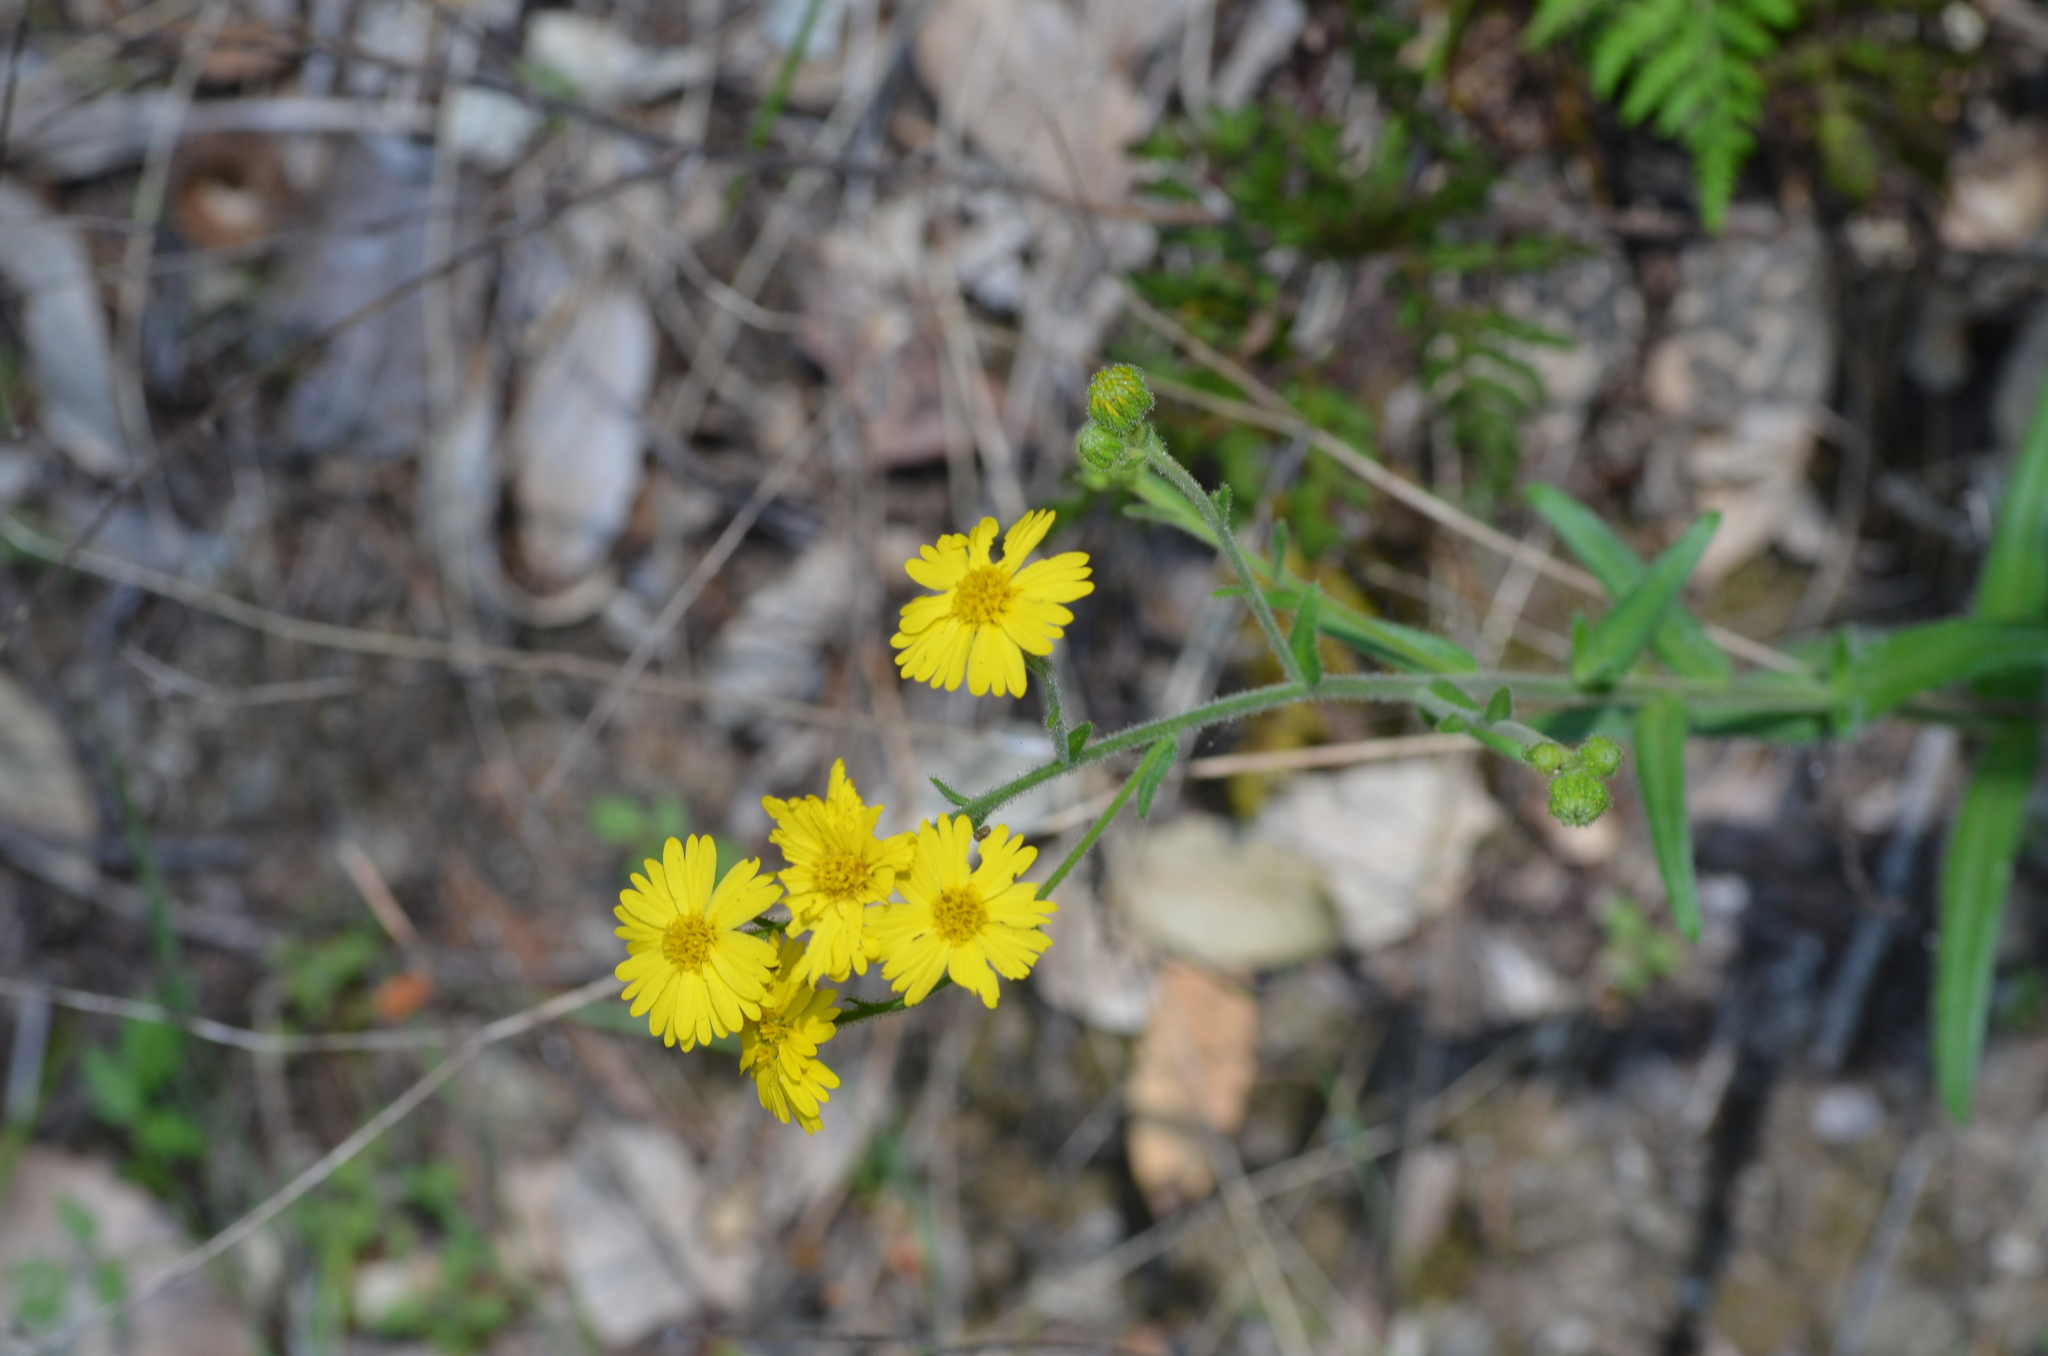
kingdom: Plantae
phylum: Tracheophyta
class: Magnoliopsida
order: Asterales
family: Asteraceae
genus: Anisocarpus
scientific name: Anisocarpus madioides
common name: Woodland madia
